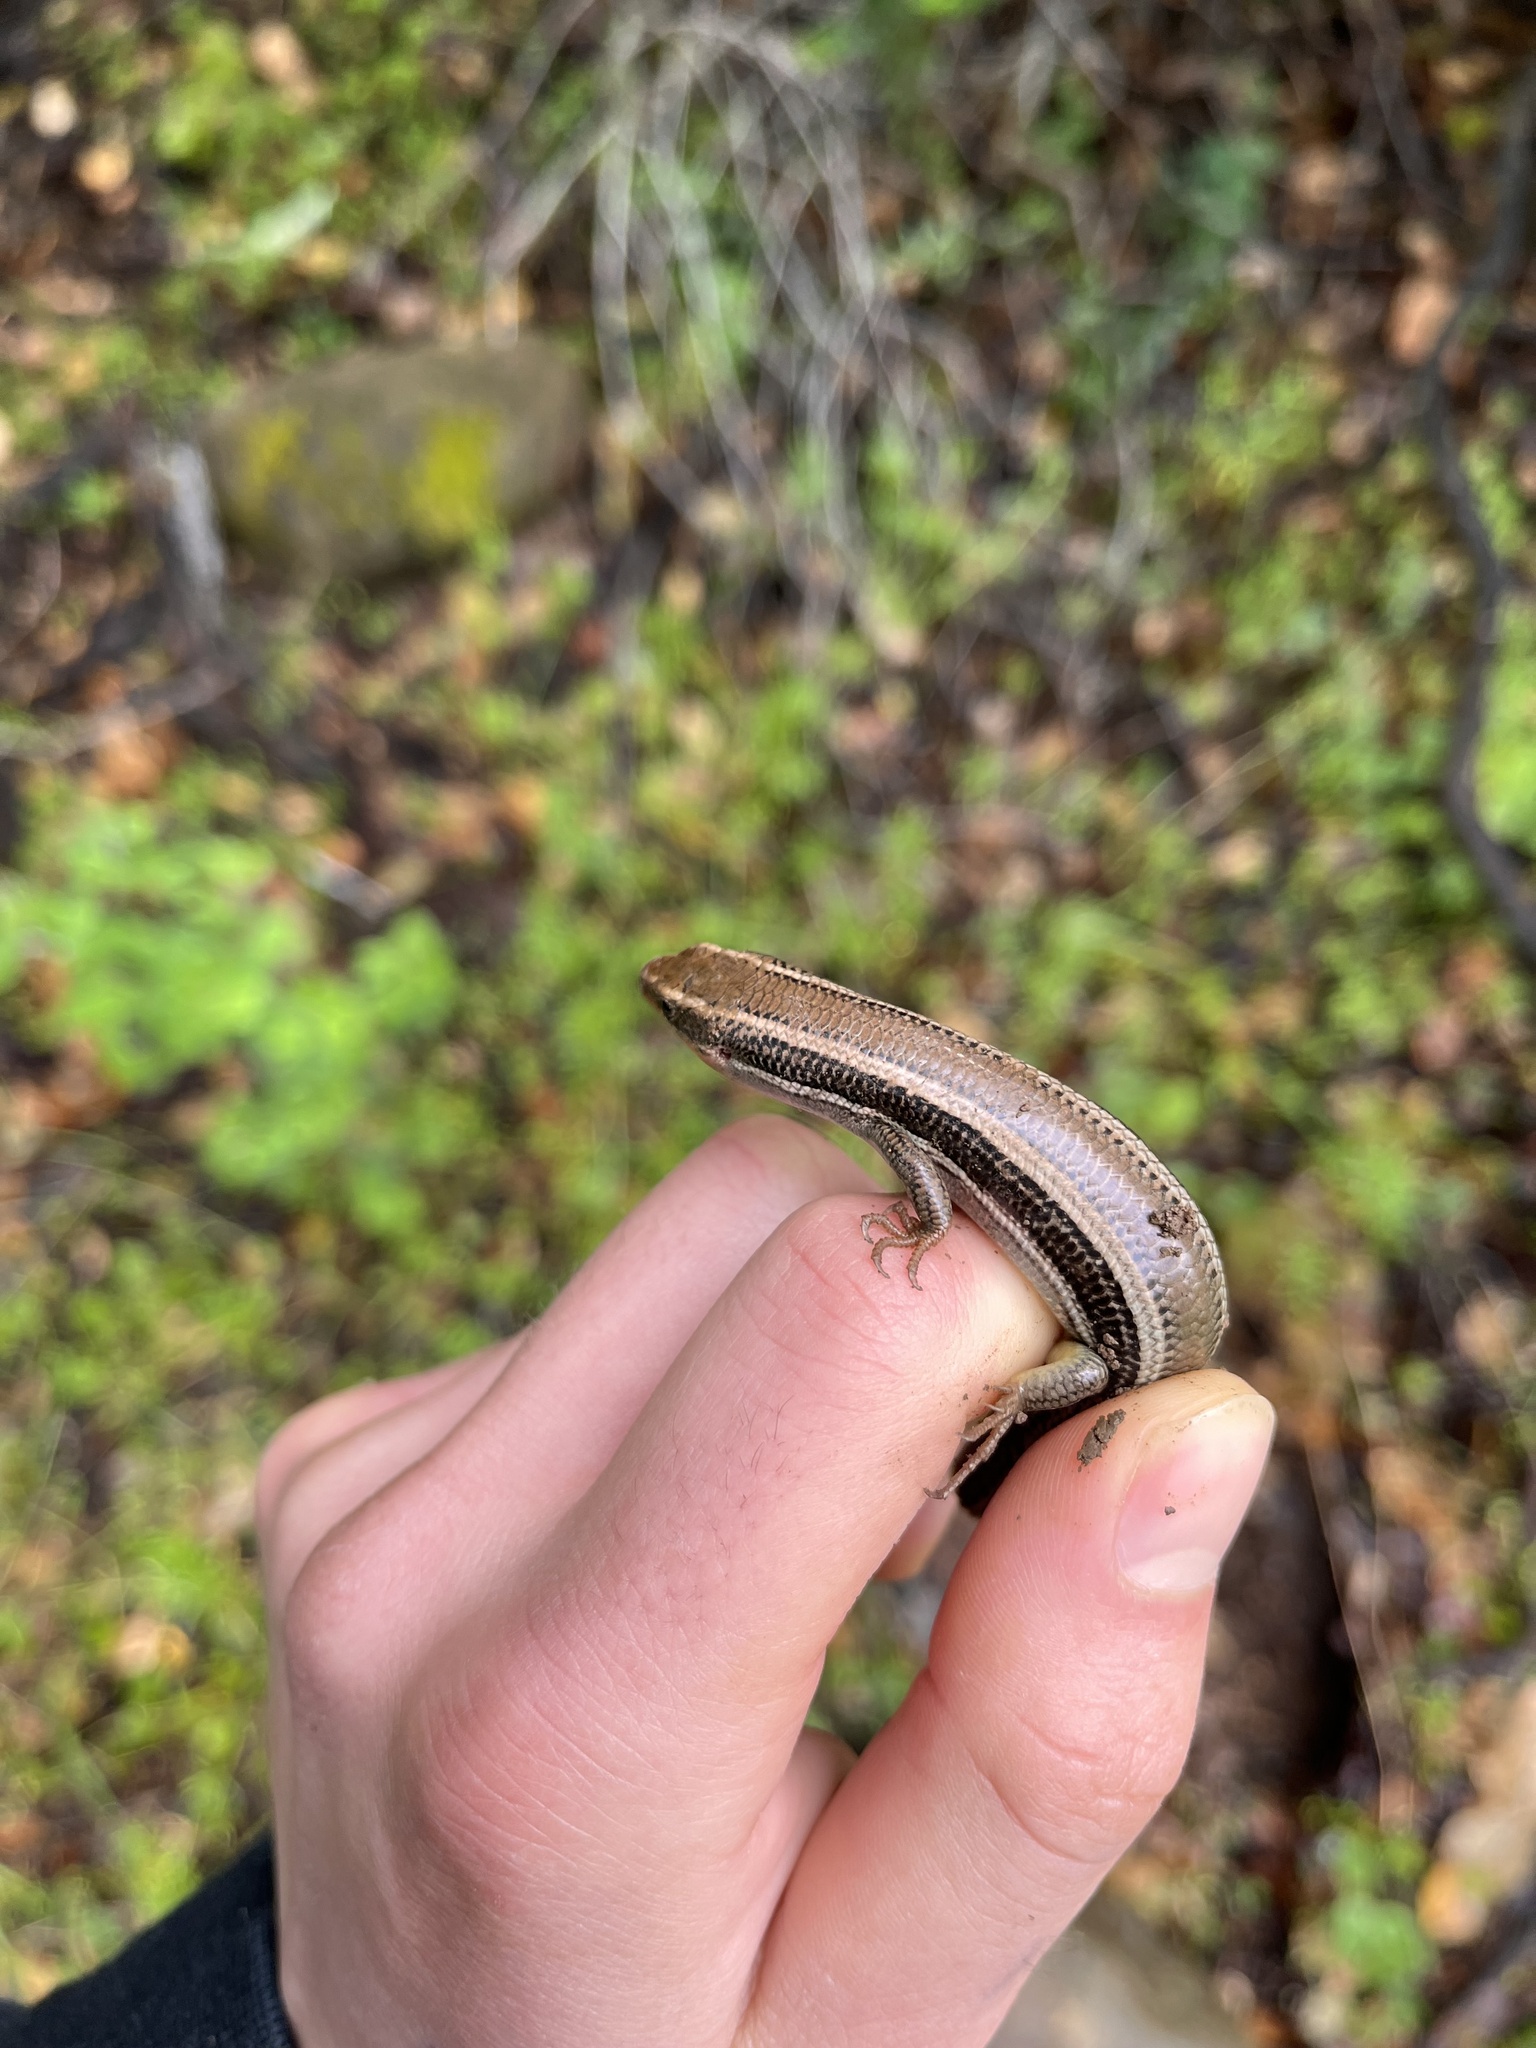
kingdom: Animalia
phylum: Chordata
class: Squamata
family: Scincidae
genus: Plestiodon
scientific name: Plestiodon skiltonianus
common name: Coronado island skink [interparietalis]
